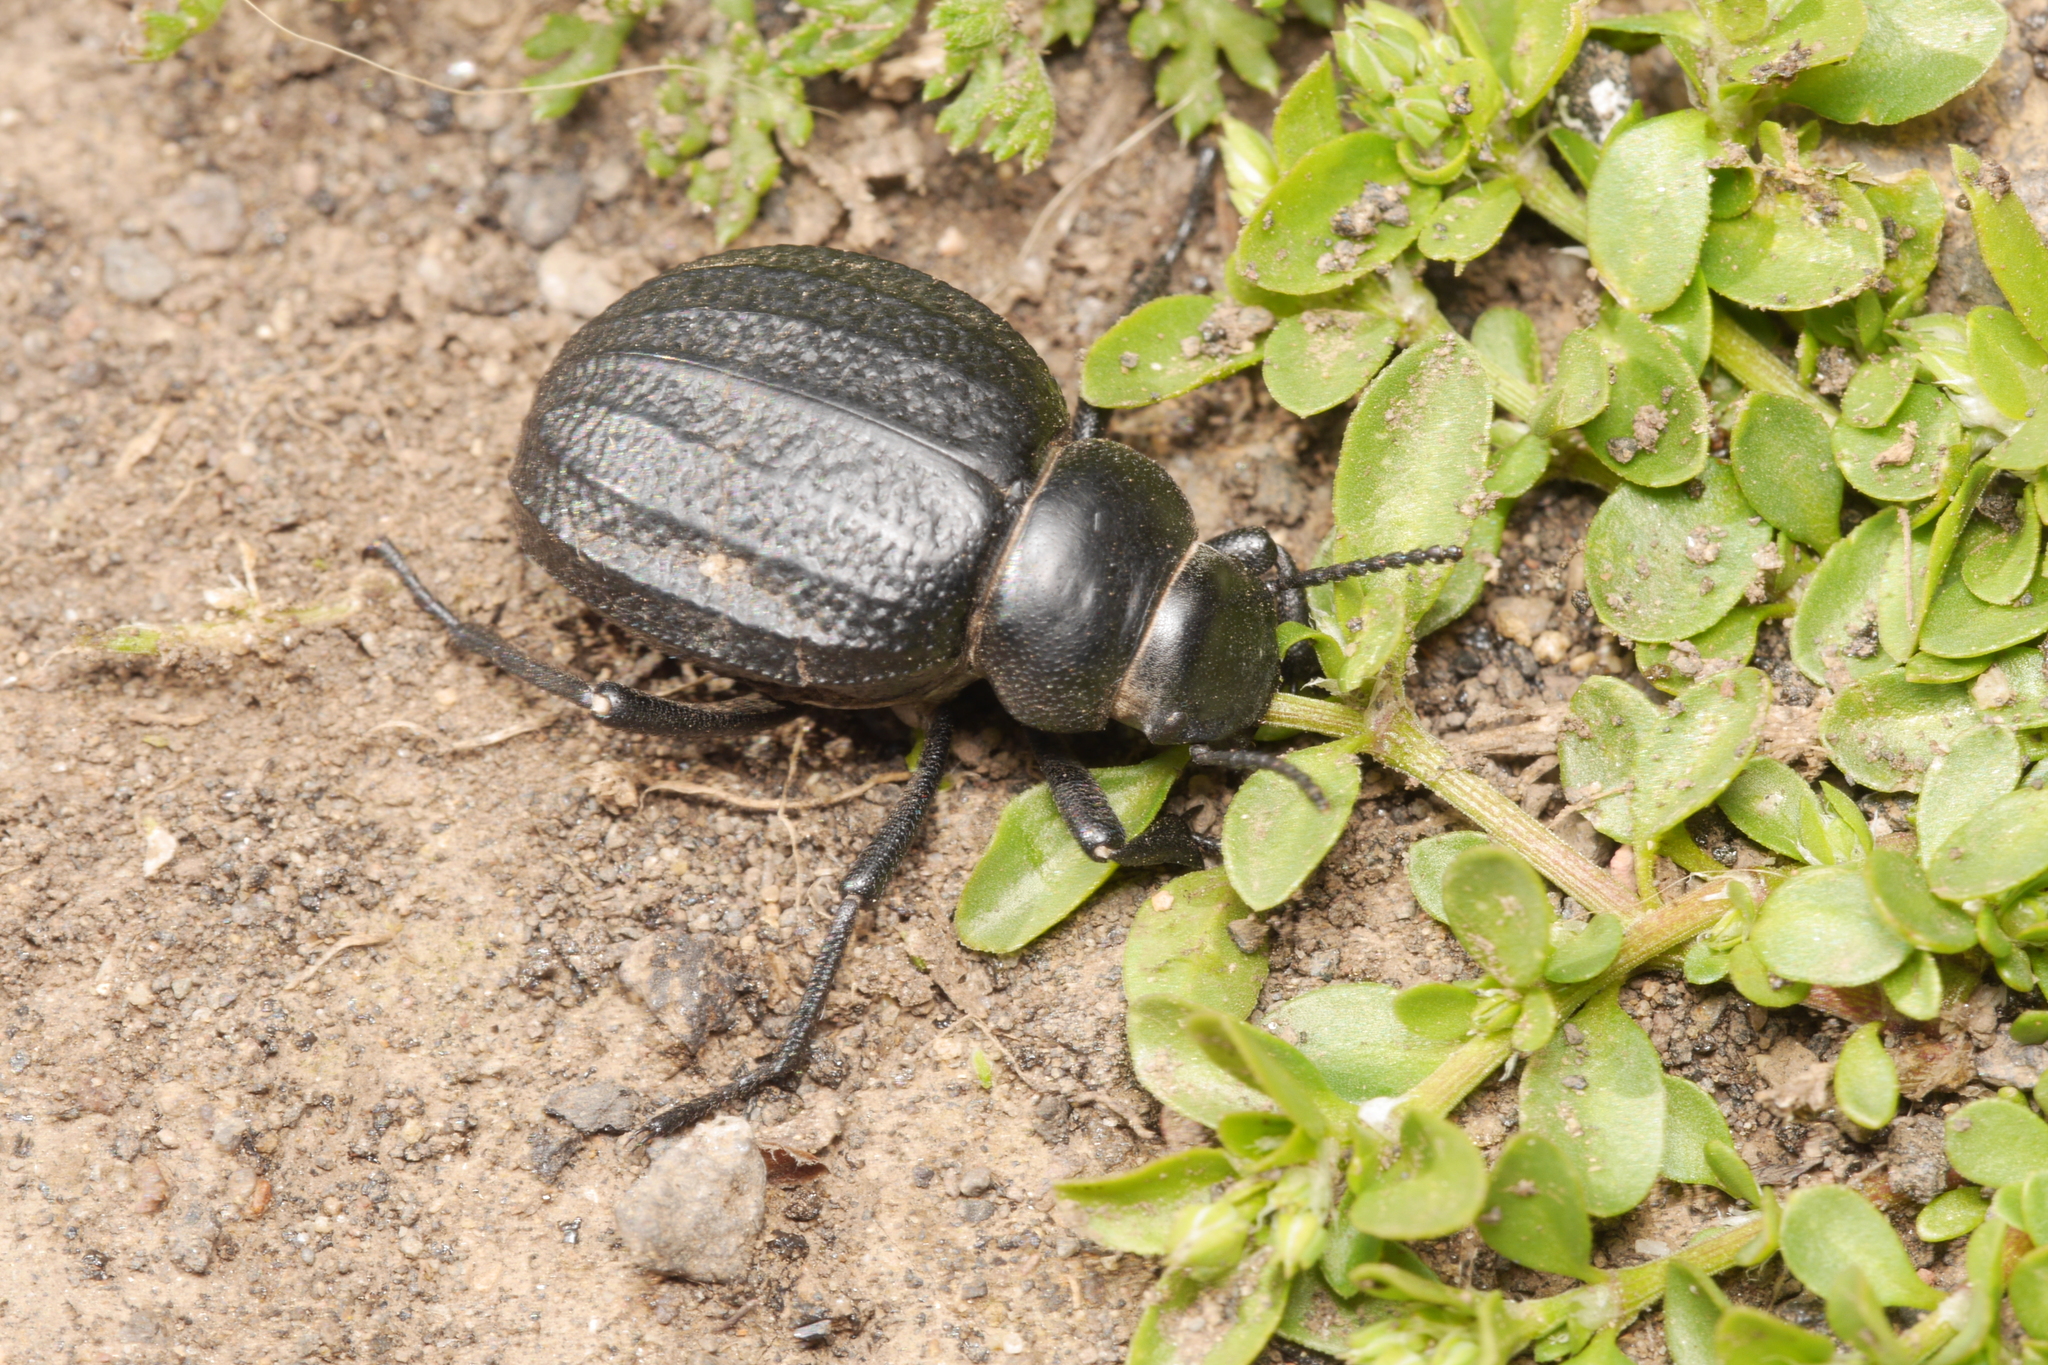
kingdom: Animalia
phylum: Arthropoda
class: Insecta
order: Coleoptera
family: Tenebrionidae
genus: Pimelia
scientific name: Pimelia rugulosa
